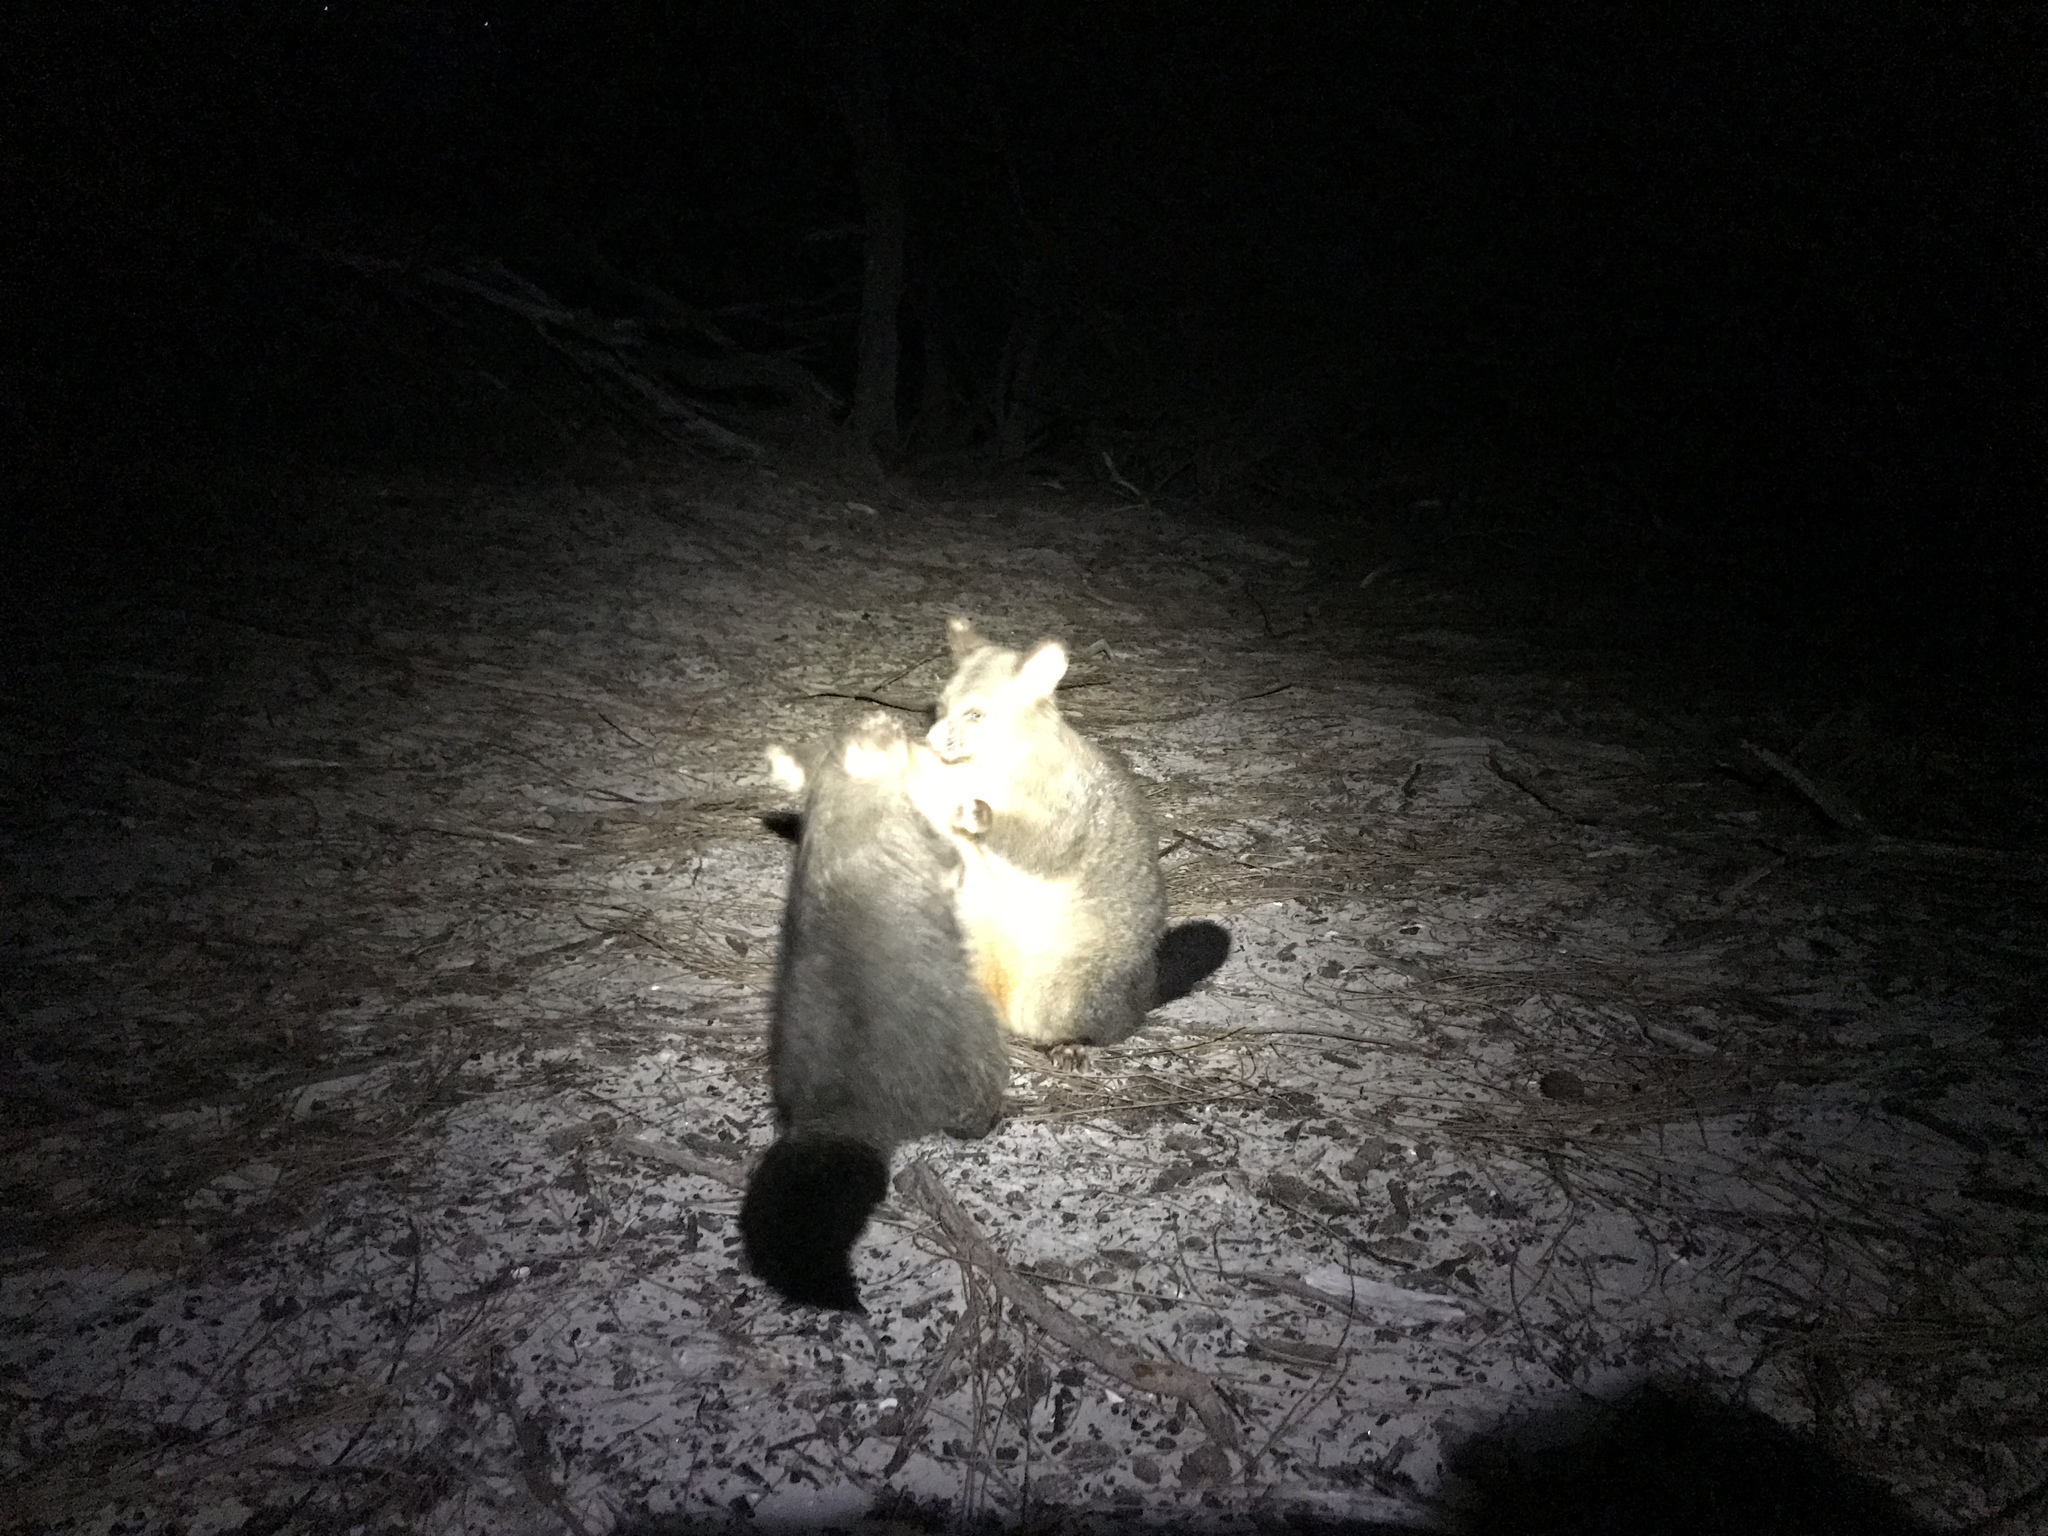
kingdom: Animalia
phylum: Chordata
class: Mammalia
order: Diprotodontia
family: Phalangeridae
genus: Trichosurus
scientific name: Trichosurus vulpecula
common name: Common brushtail
